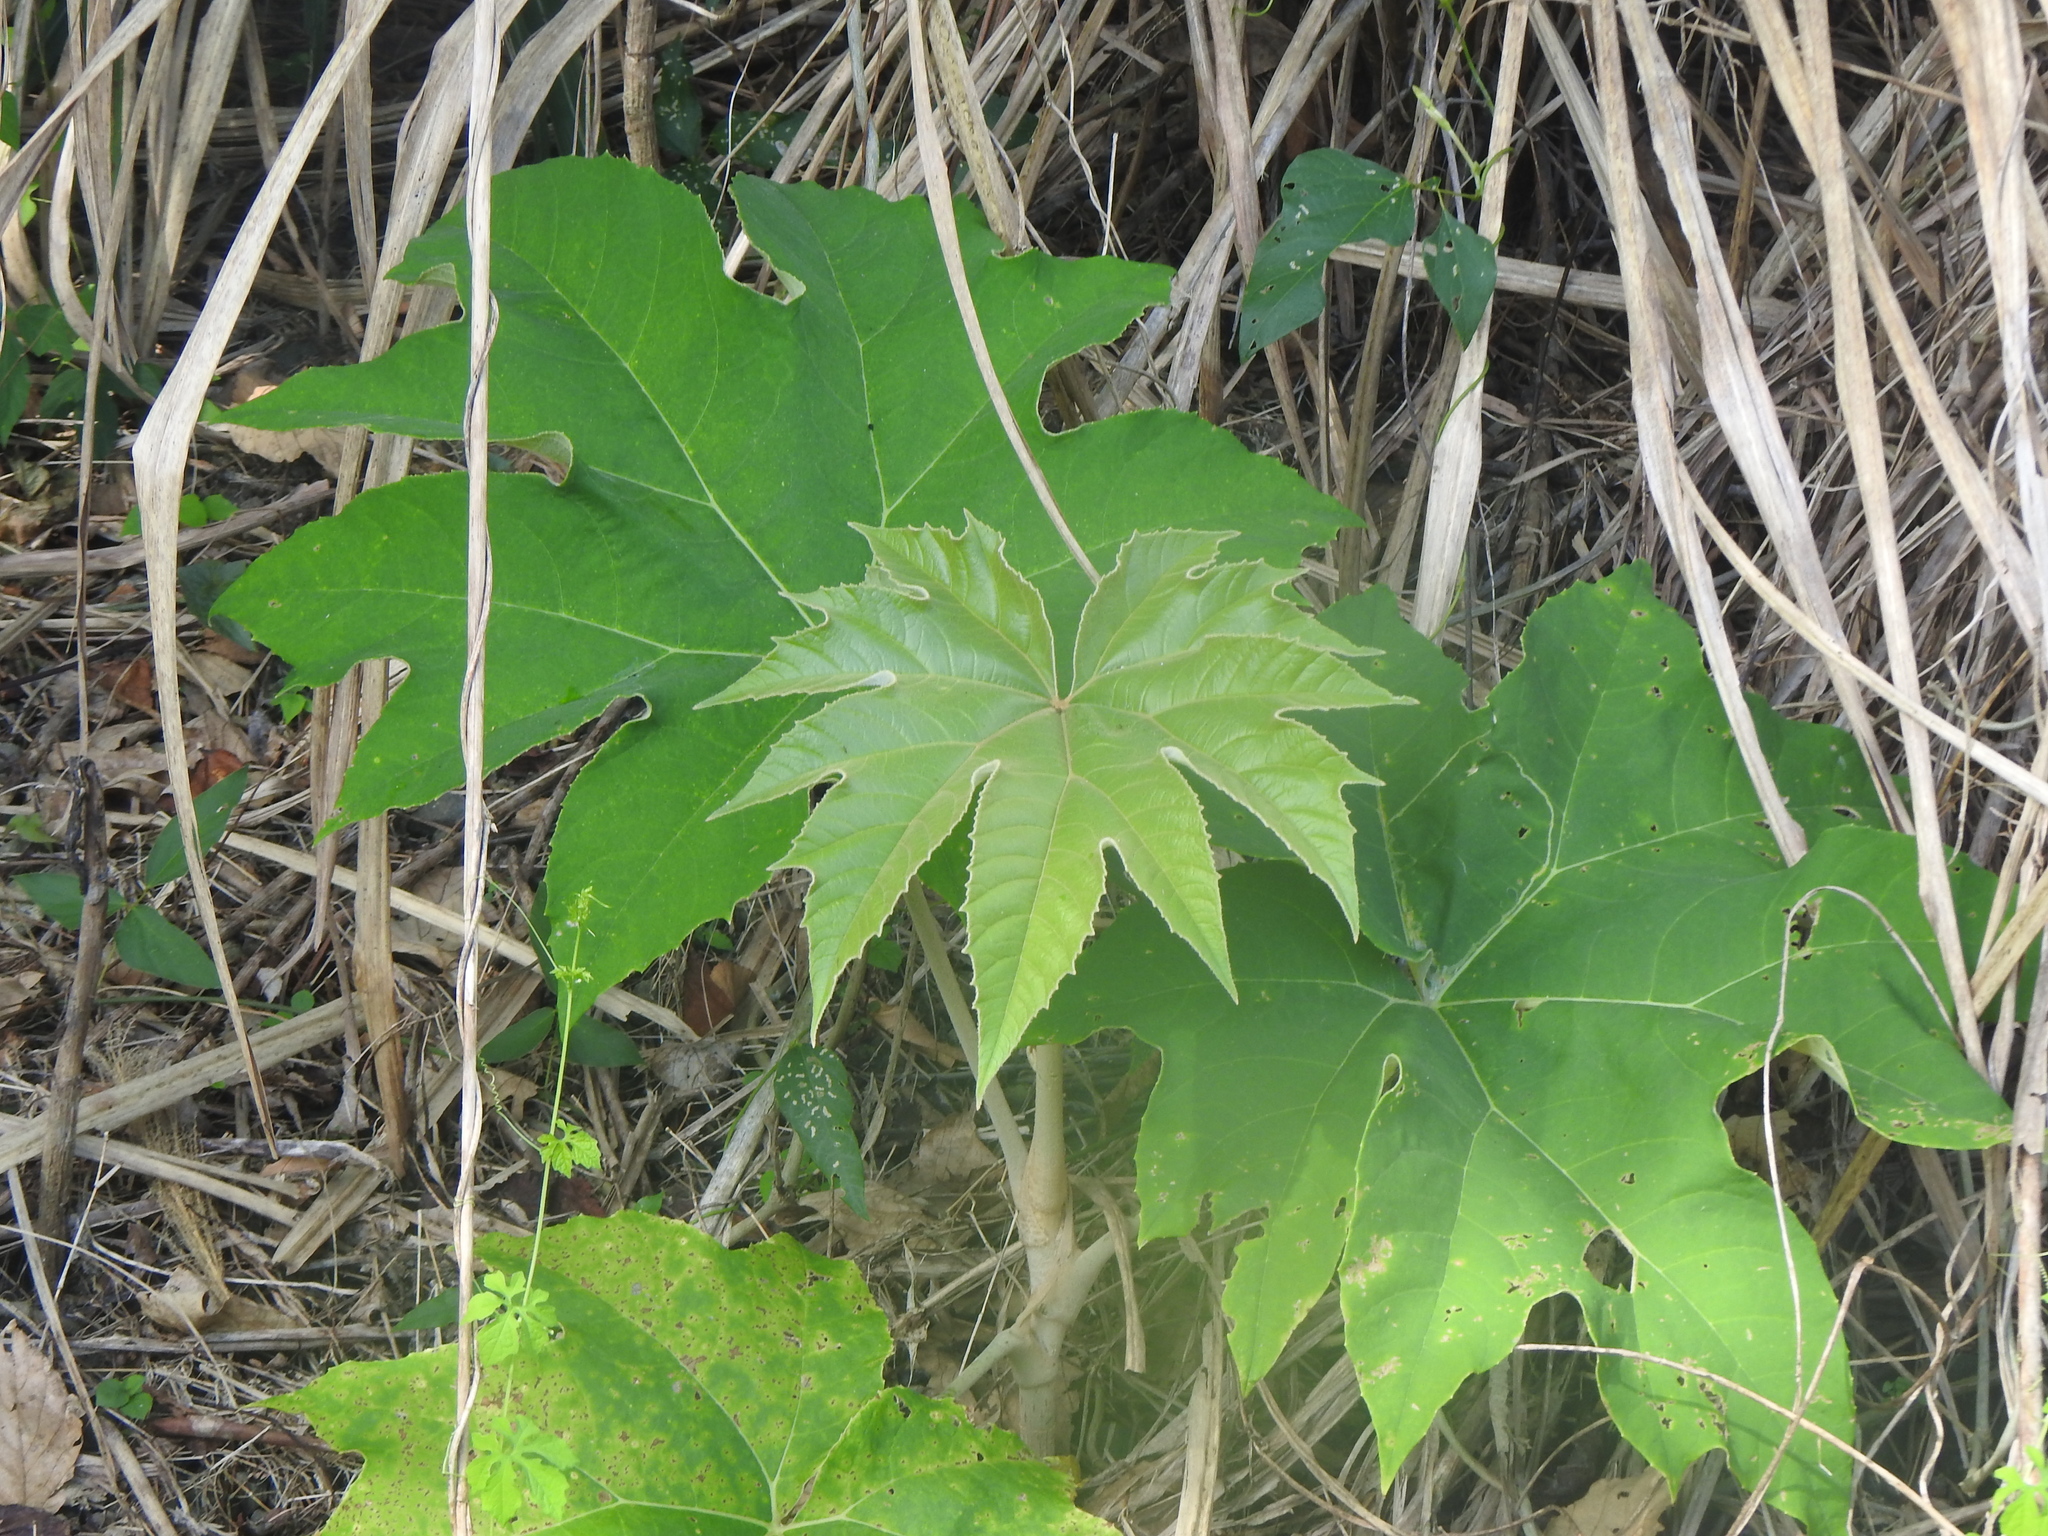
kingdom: Plantae
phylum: Tracheophyta
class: Magnoliopsida
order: Apiales
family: Araliaceae
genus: Tetrapanax
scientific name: Tetrapanax papyrifer
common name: Rice-paper plant
